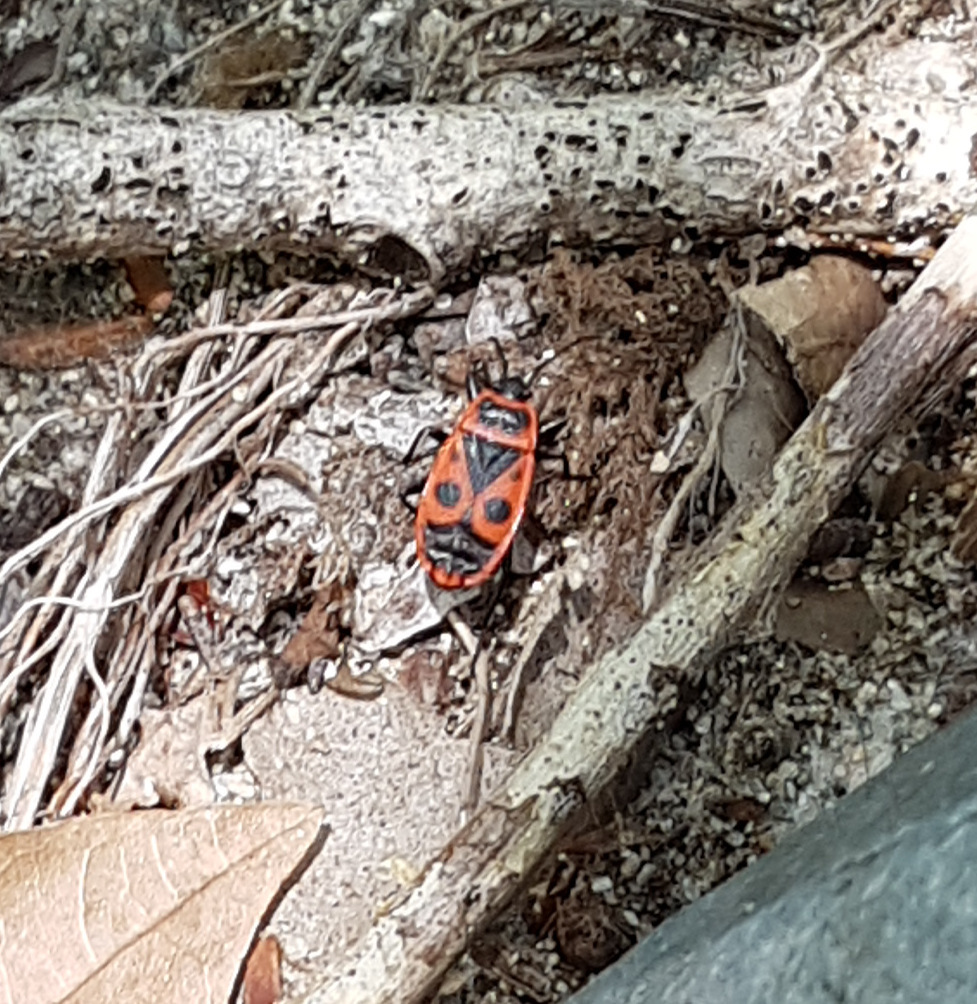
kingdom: Animalia
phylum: Arthropoda
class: Insecta
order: Hemiptera
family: Pyrrhocoridae
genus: Pyrrhocoris
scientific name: Pyrrhocoris apterus
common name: Firebug
